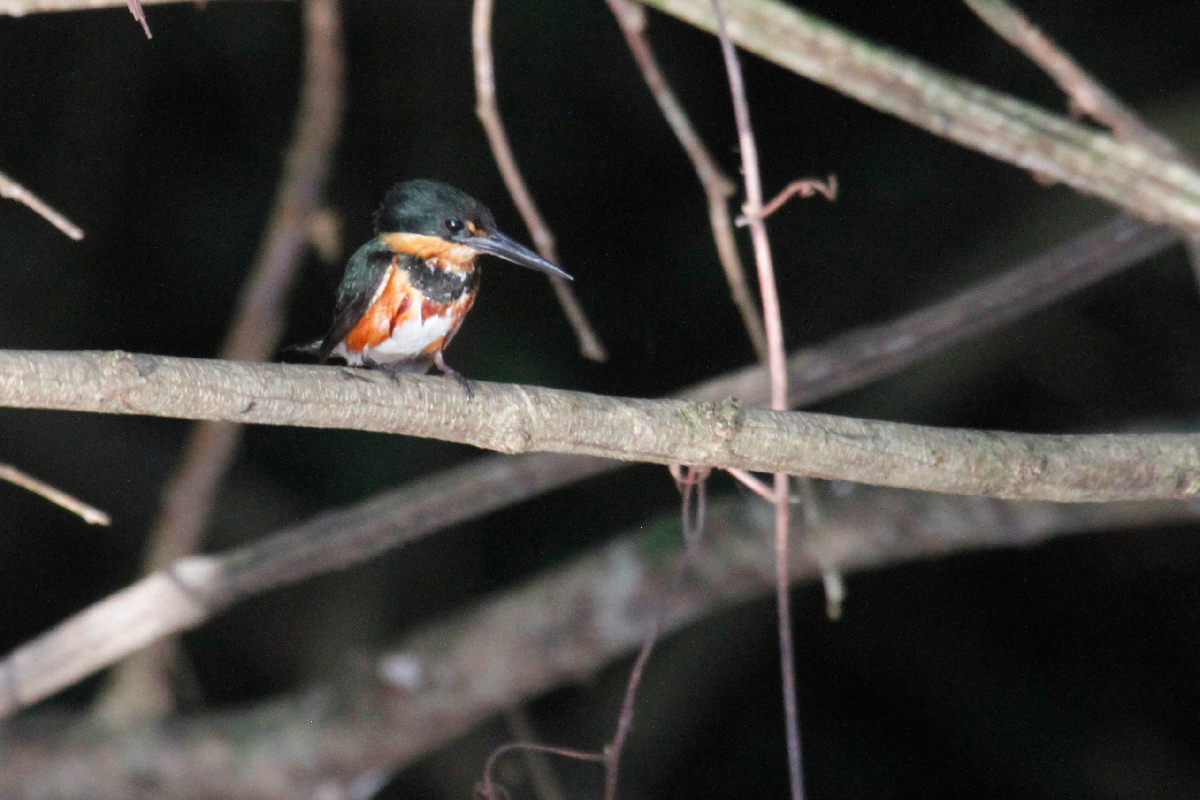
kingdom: Animalia
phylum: Chordata
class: Aves
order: Coraciiformes
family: Alcedinidae
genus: Chloroceryle
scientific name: Chloroceryle aenea
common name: American pygmy kingfisher
